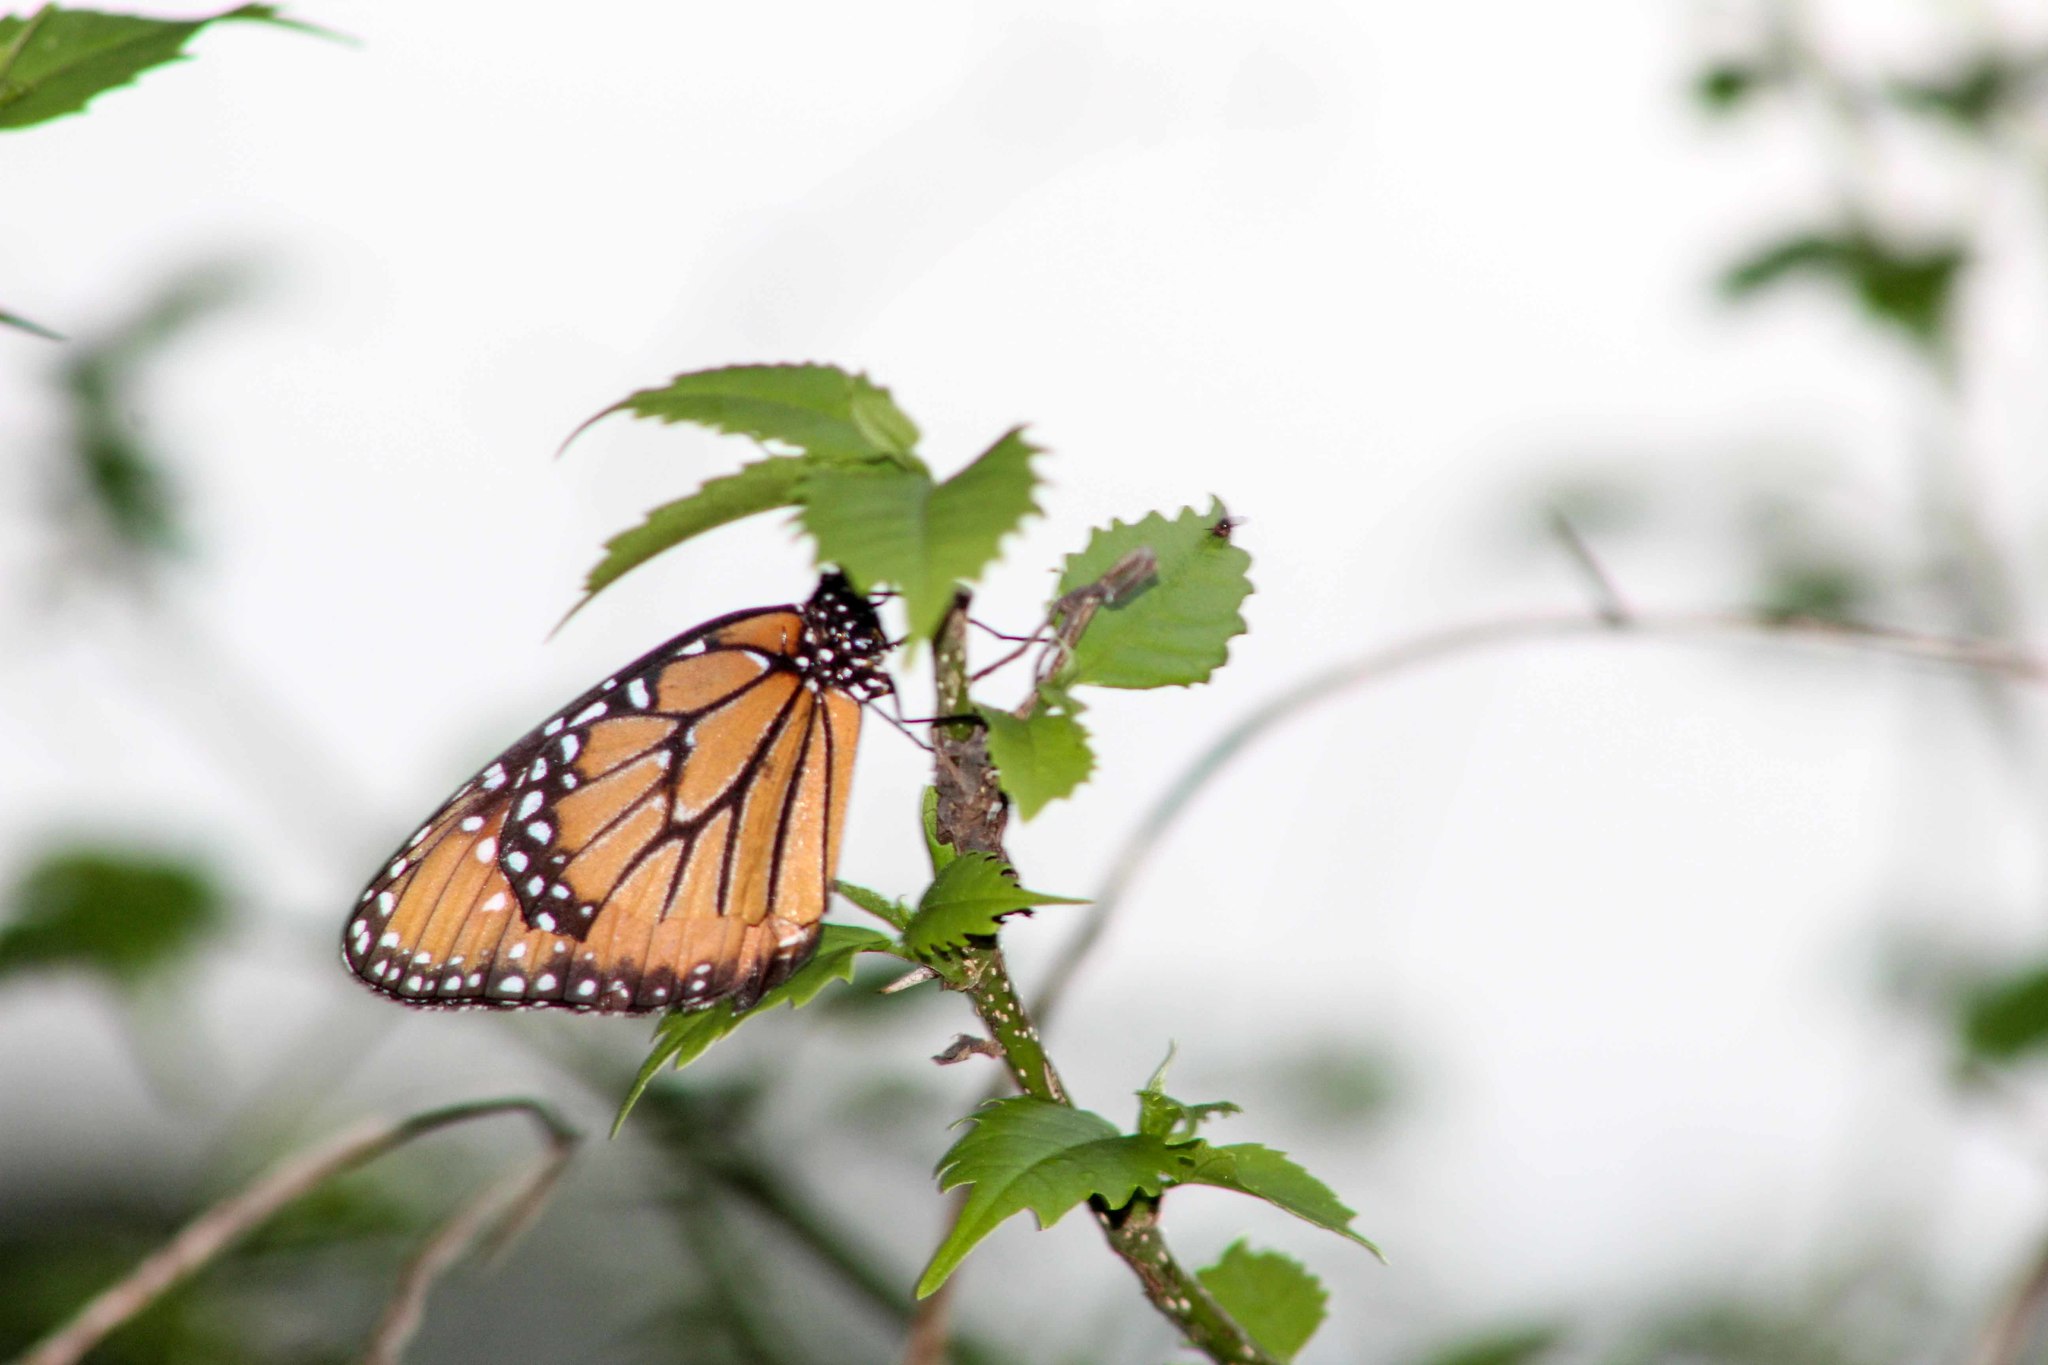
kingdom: Animalia
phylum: Arthropoda
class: Insecta
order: Lepidoptera
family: Nymphalidae
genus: Danaus
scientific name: Danaus gilippus
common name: Queen
